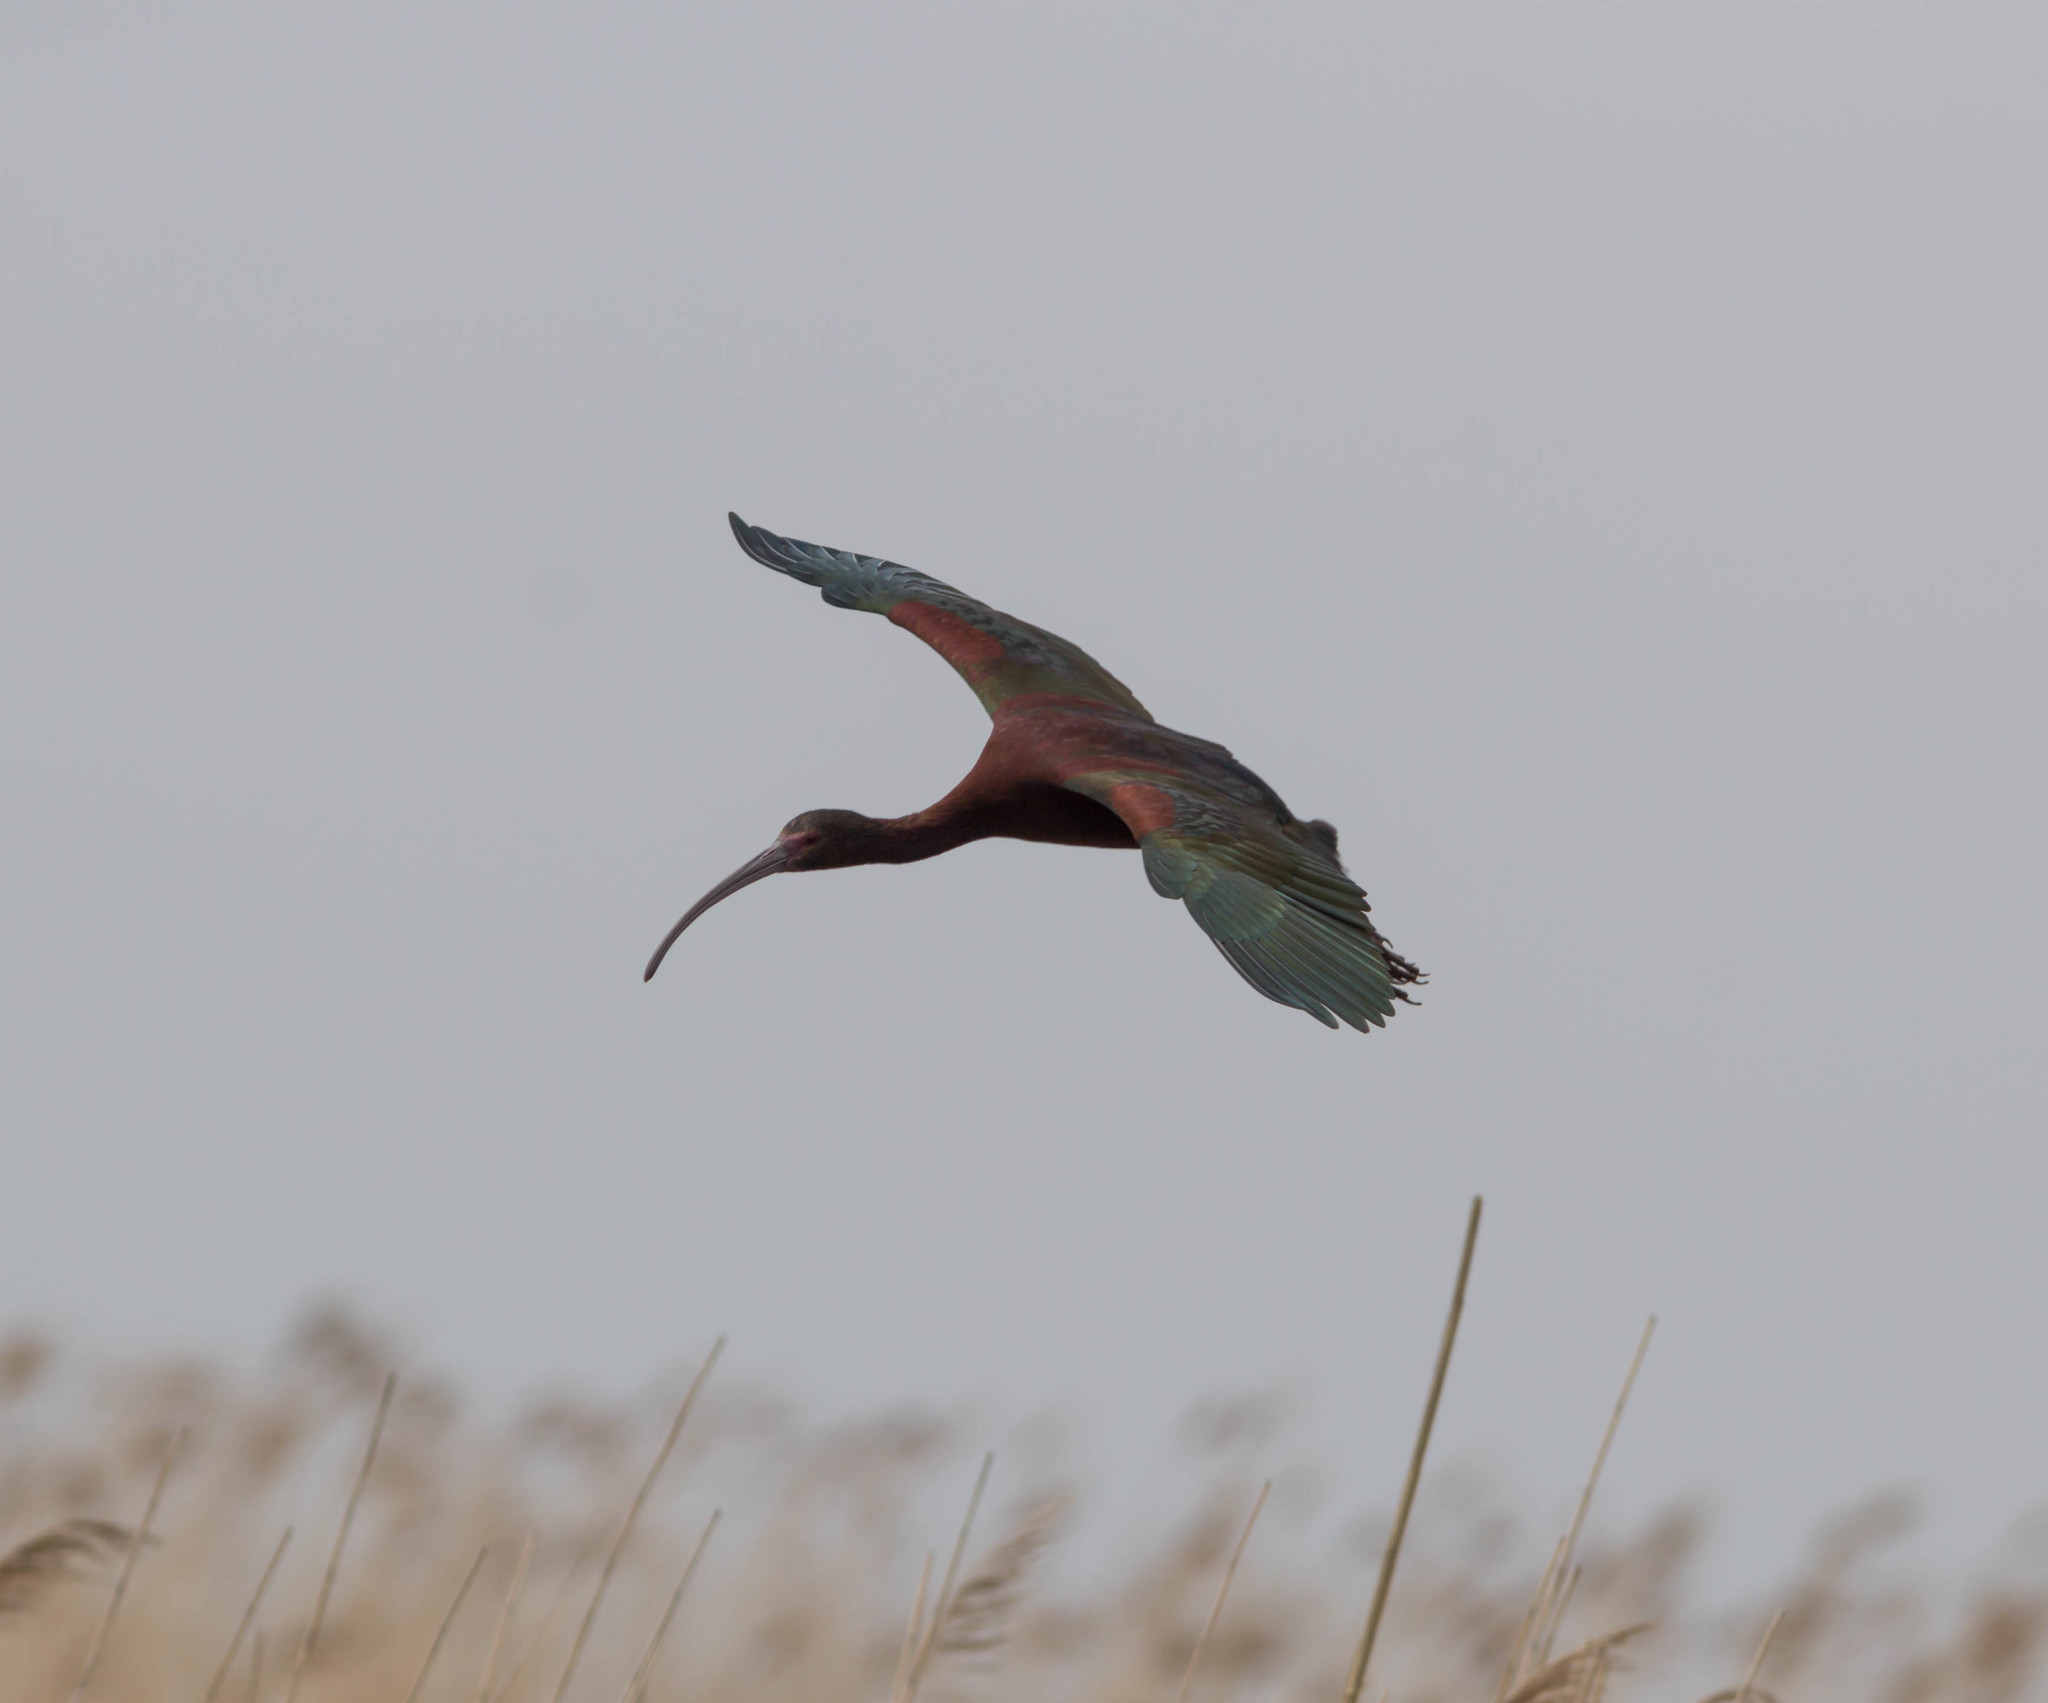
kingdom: Animalia
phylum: Chordata
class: Aves
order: Pelecaniformes
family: Threskiornithidae
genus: Plegadis
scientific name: Plegadis chihi
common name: White-faced ibis
